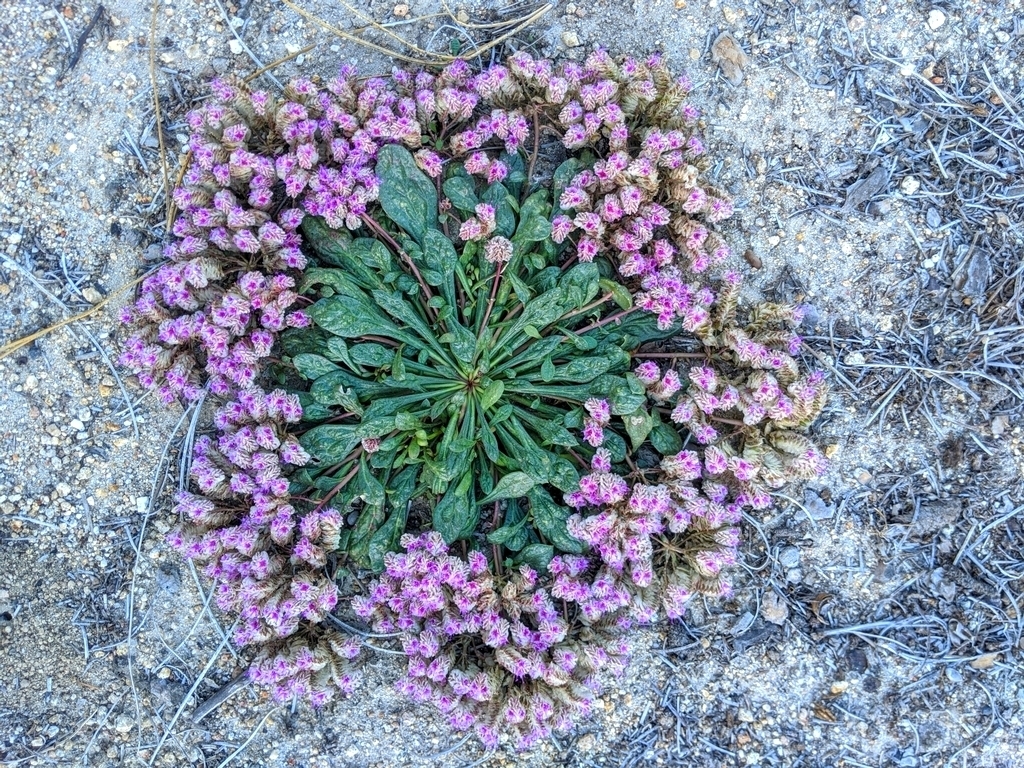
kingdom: Plantae
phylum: Tracheophyta
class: Magnoliopsida
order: Caryophyllales
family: Montiaceae
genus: Calyptridium
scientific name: Calyptridium monospermum
